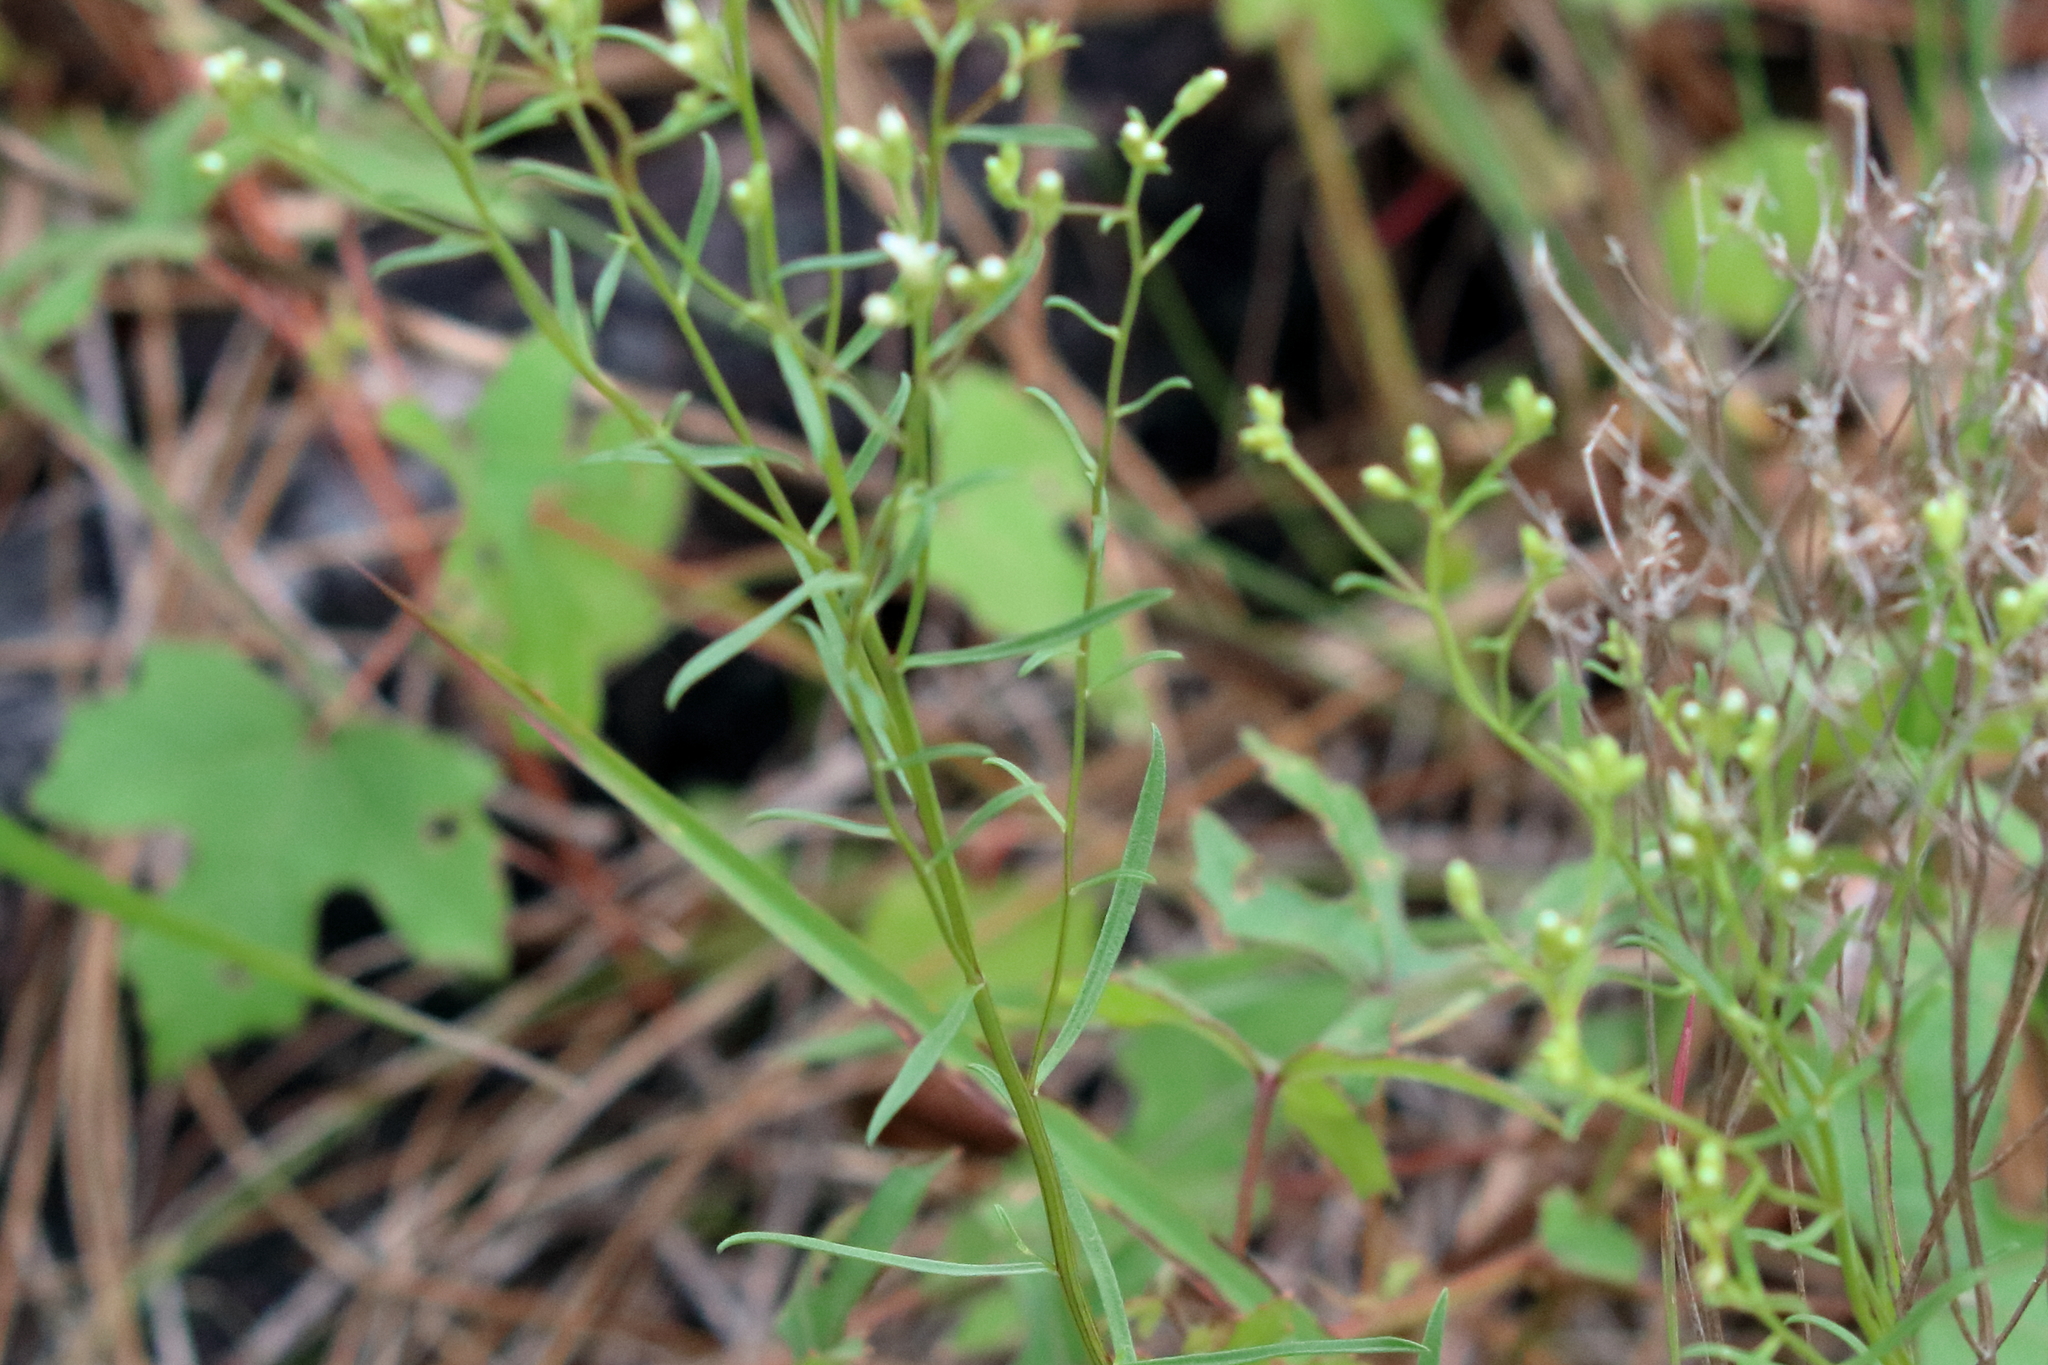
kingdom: Plantae
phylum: Tracheophyta
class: Magnoliopsida
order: Asterales
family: Asteraceae
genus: Sericocarpus
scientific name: Sericocarpus linifolius
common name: Narrow-leaf aster
